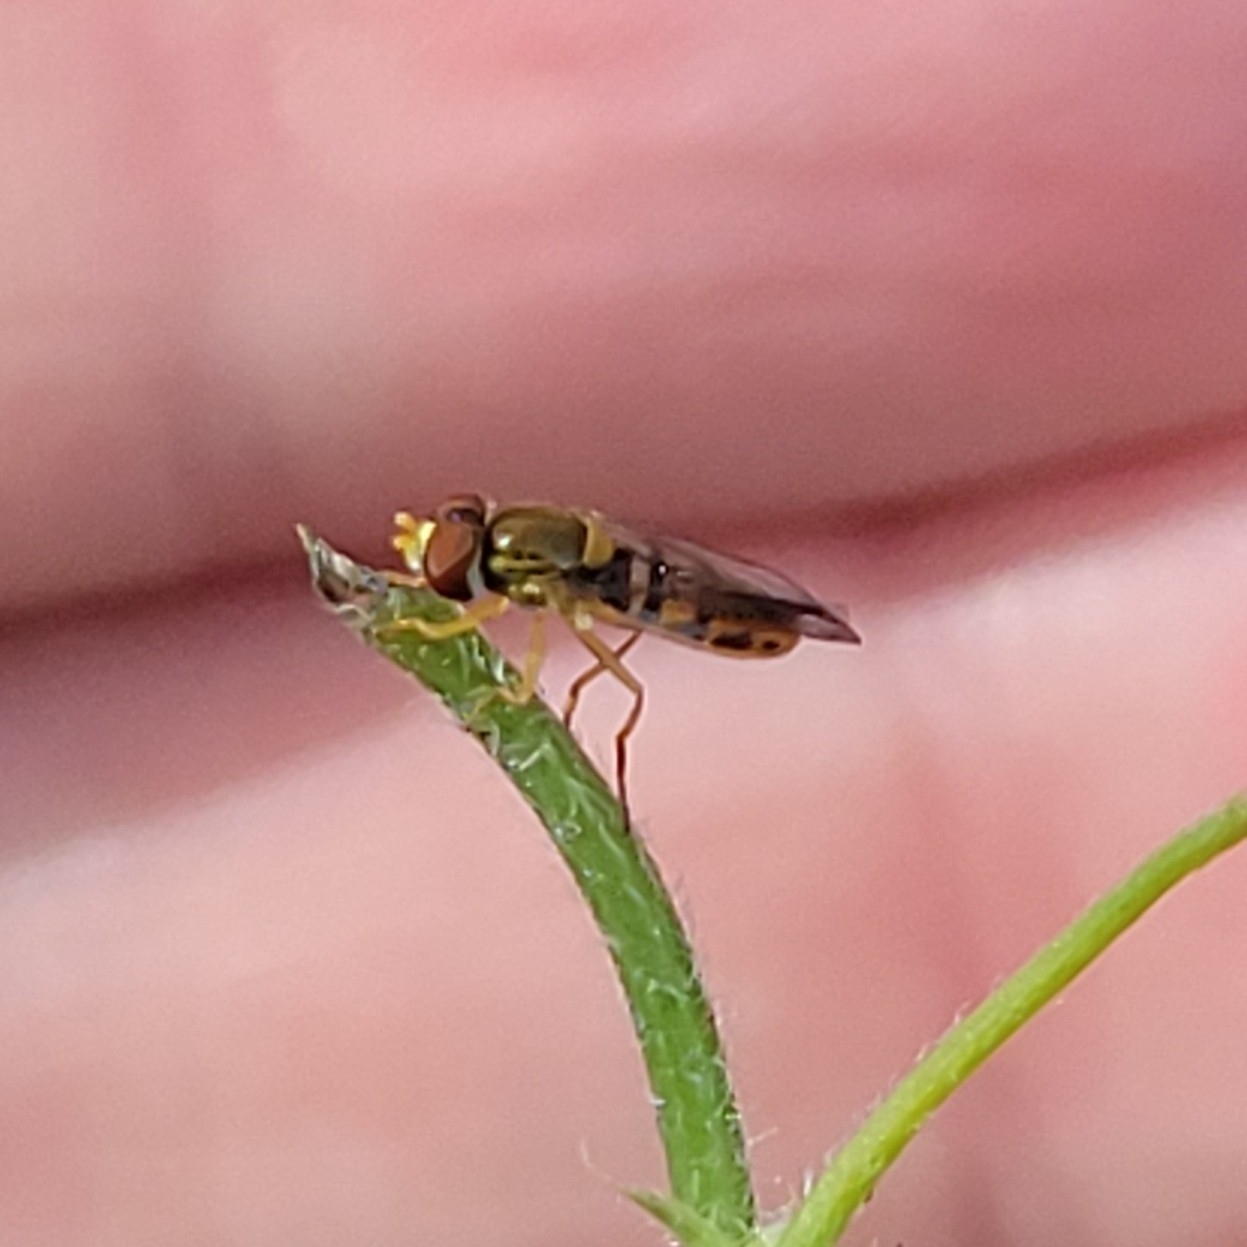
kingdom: Animalia
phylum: Arthropoda
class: Insecta
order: Diptera
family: Syrphidae
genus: Toxomerus
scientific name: Toxomerus marginatus
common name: Syrphid fly
